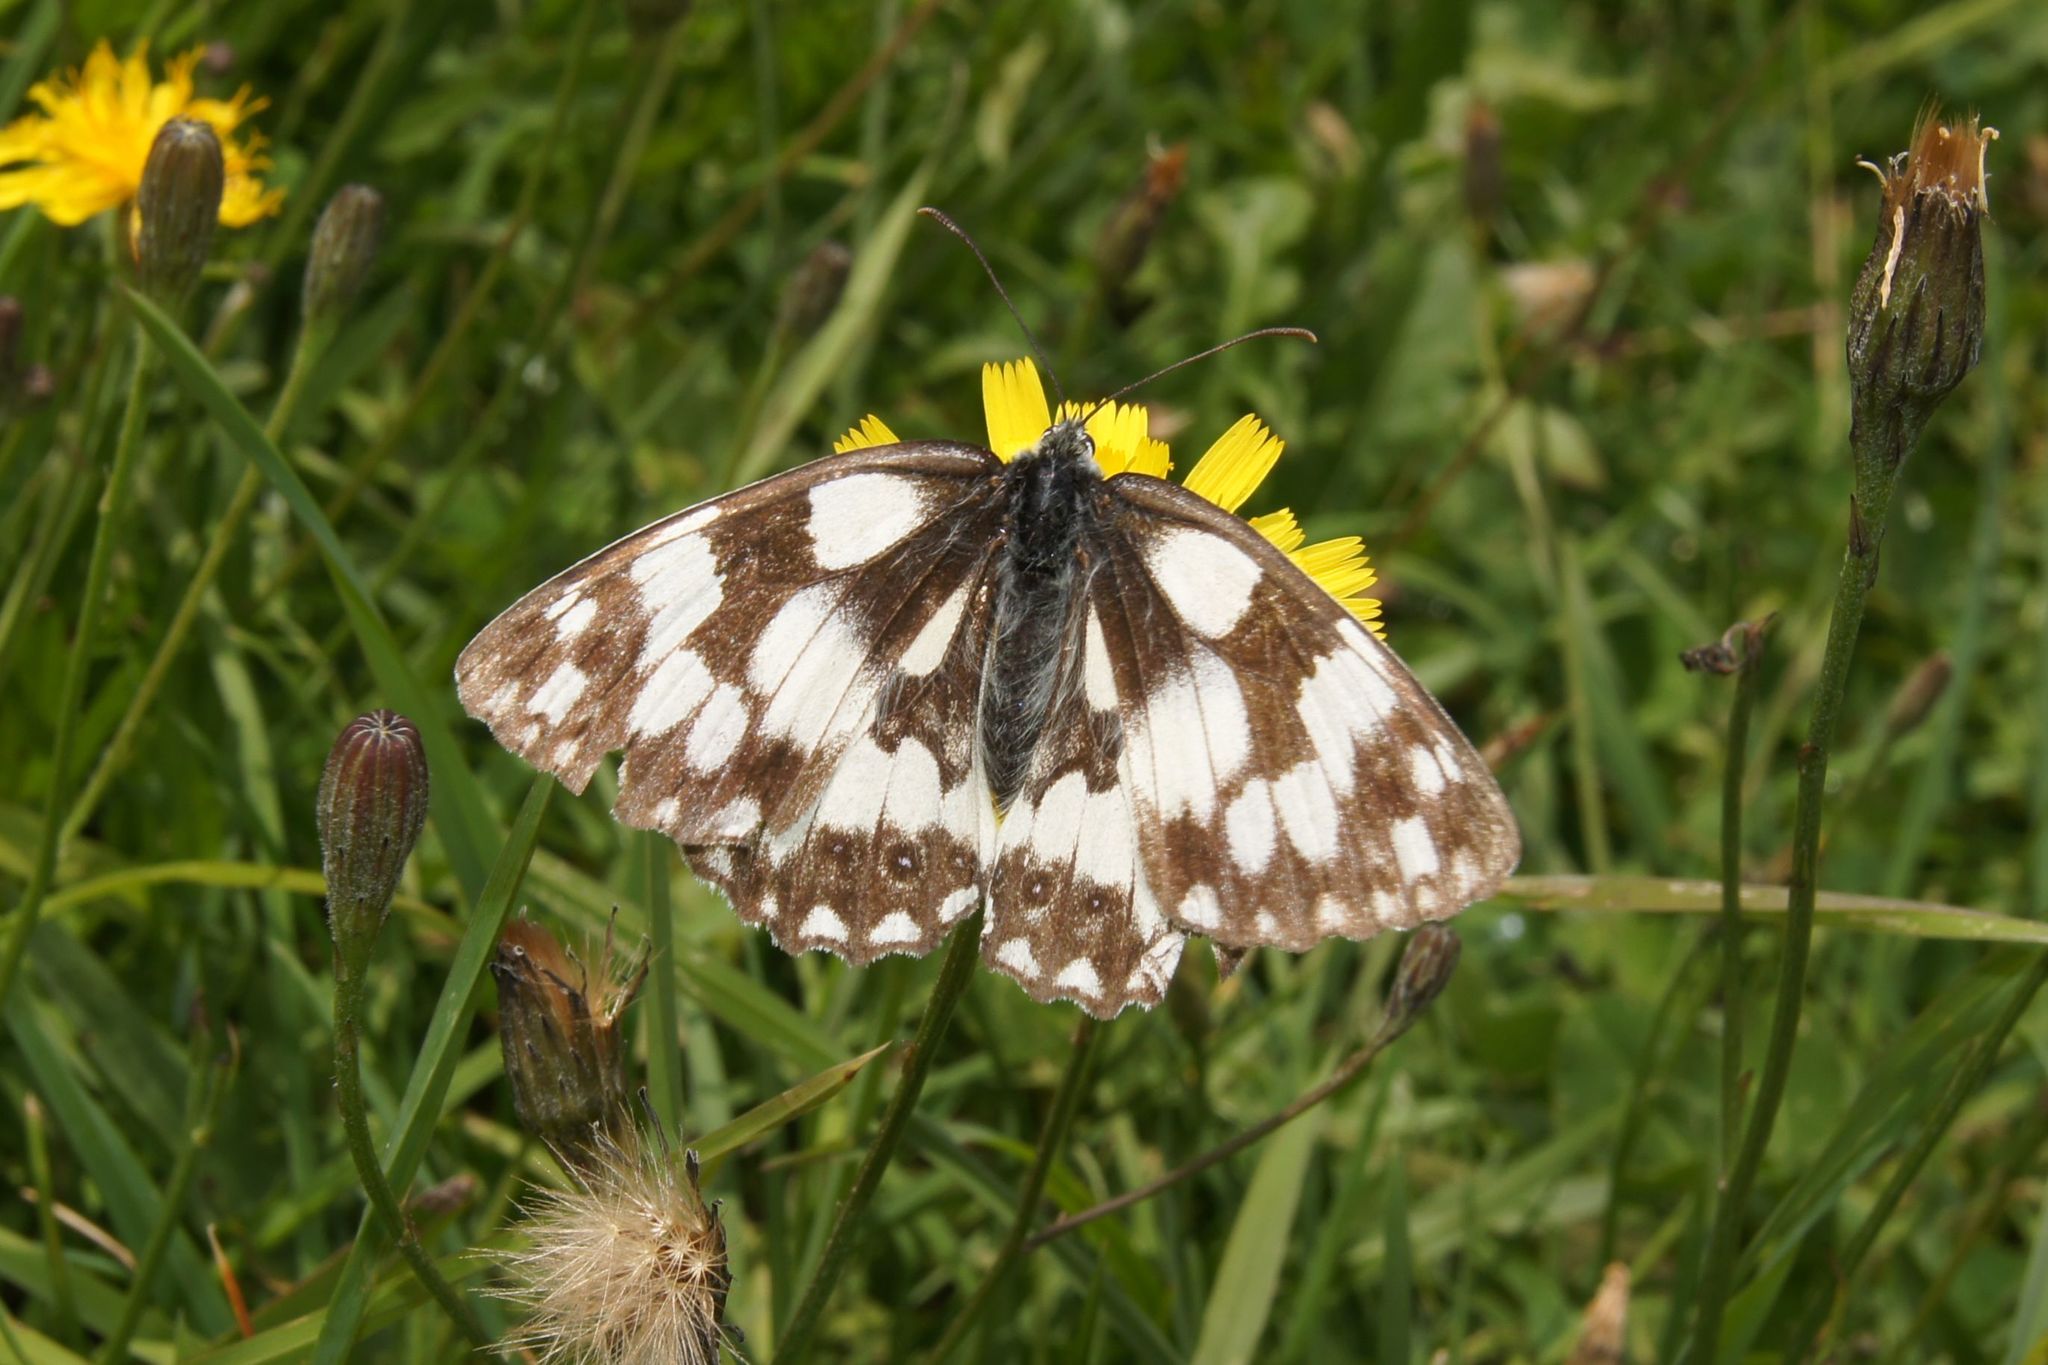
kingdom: Animalia
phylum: Arthropoda
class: Insecta
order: Lepidoptera
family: Nymphalidae
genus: Melanargia
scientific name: Melanargia galathea
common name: Marbled white
